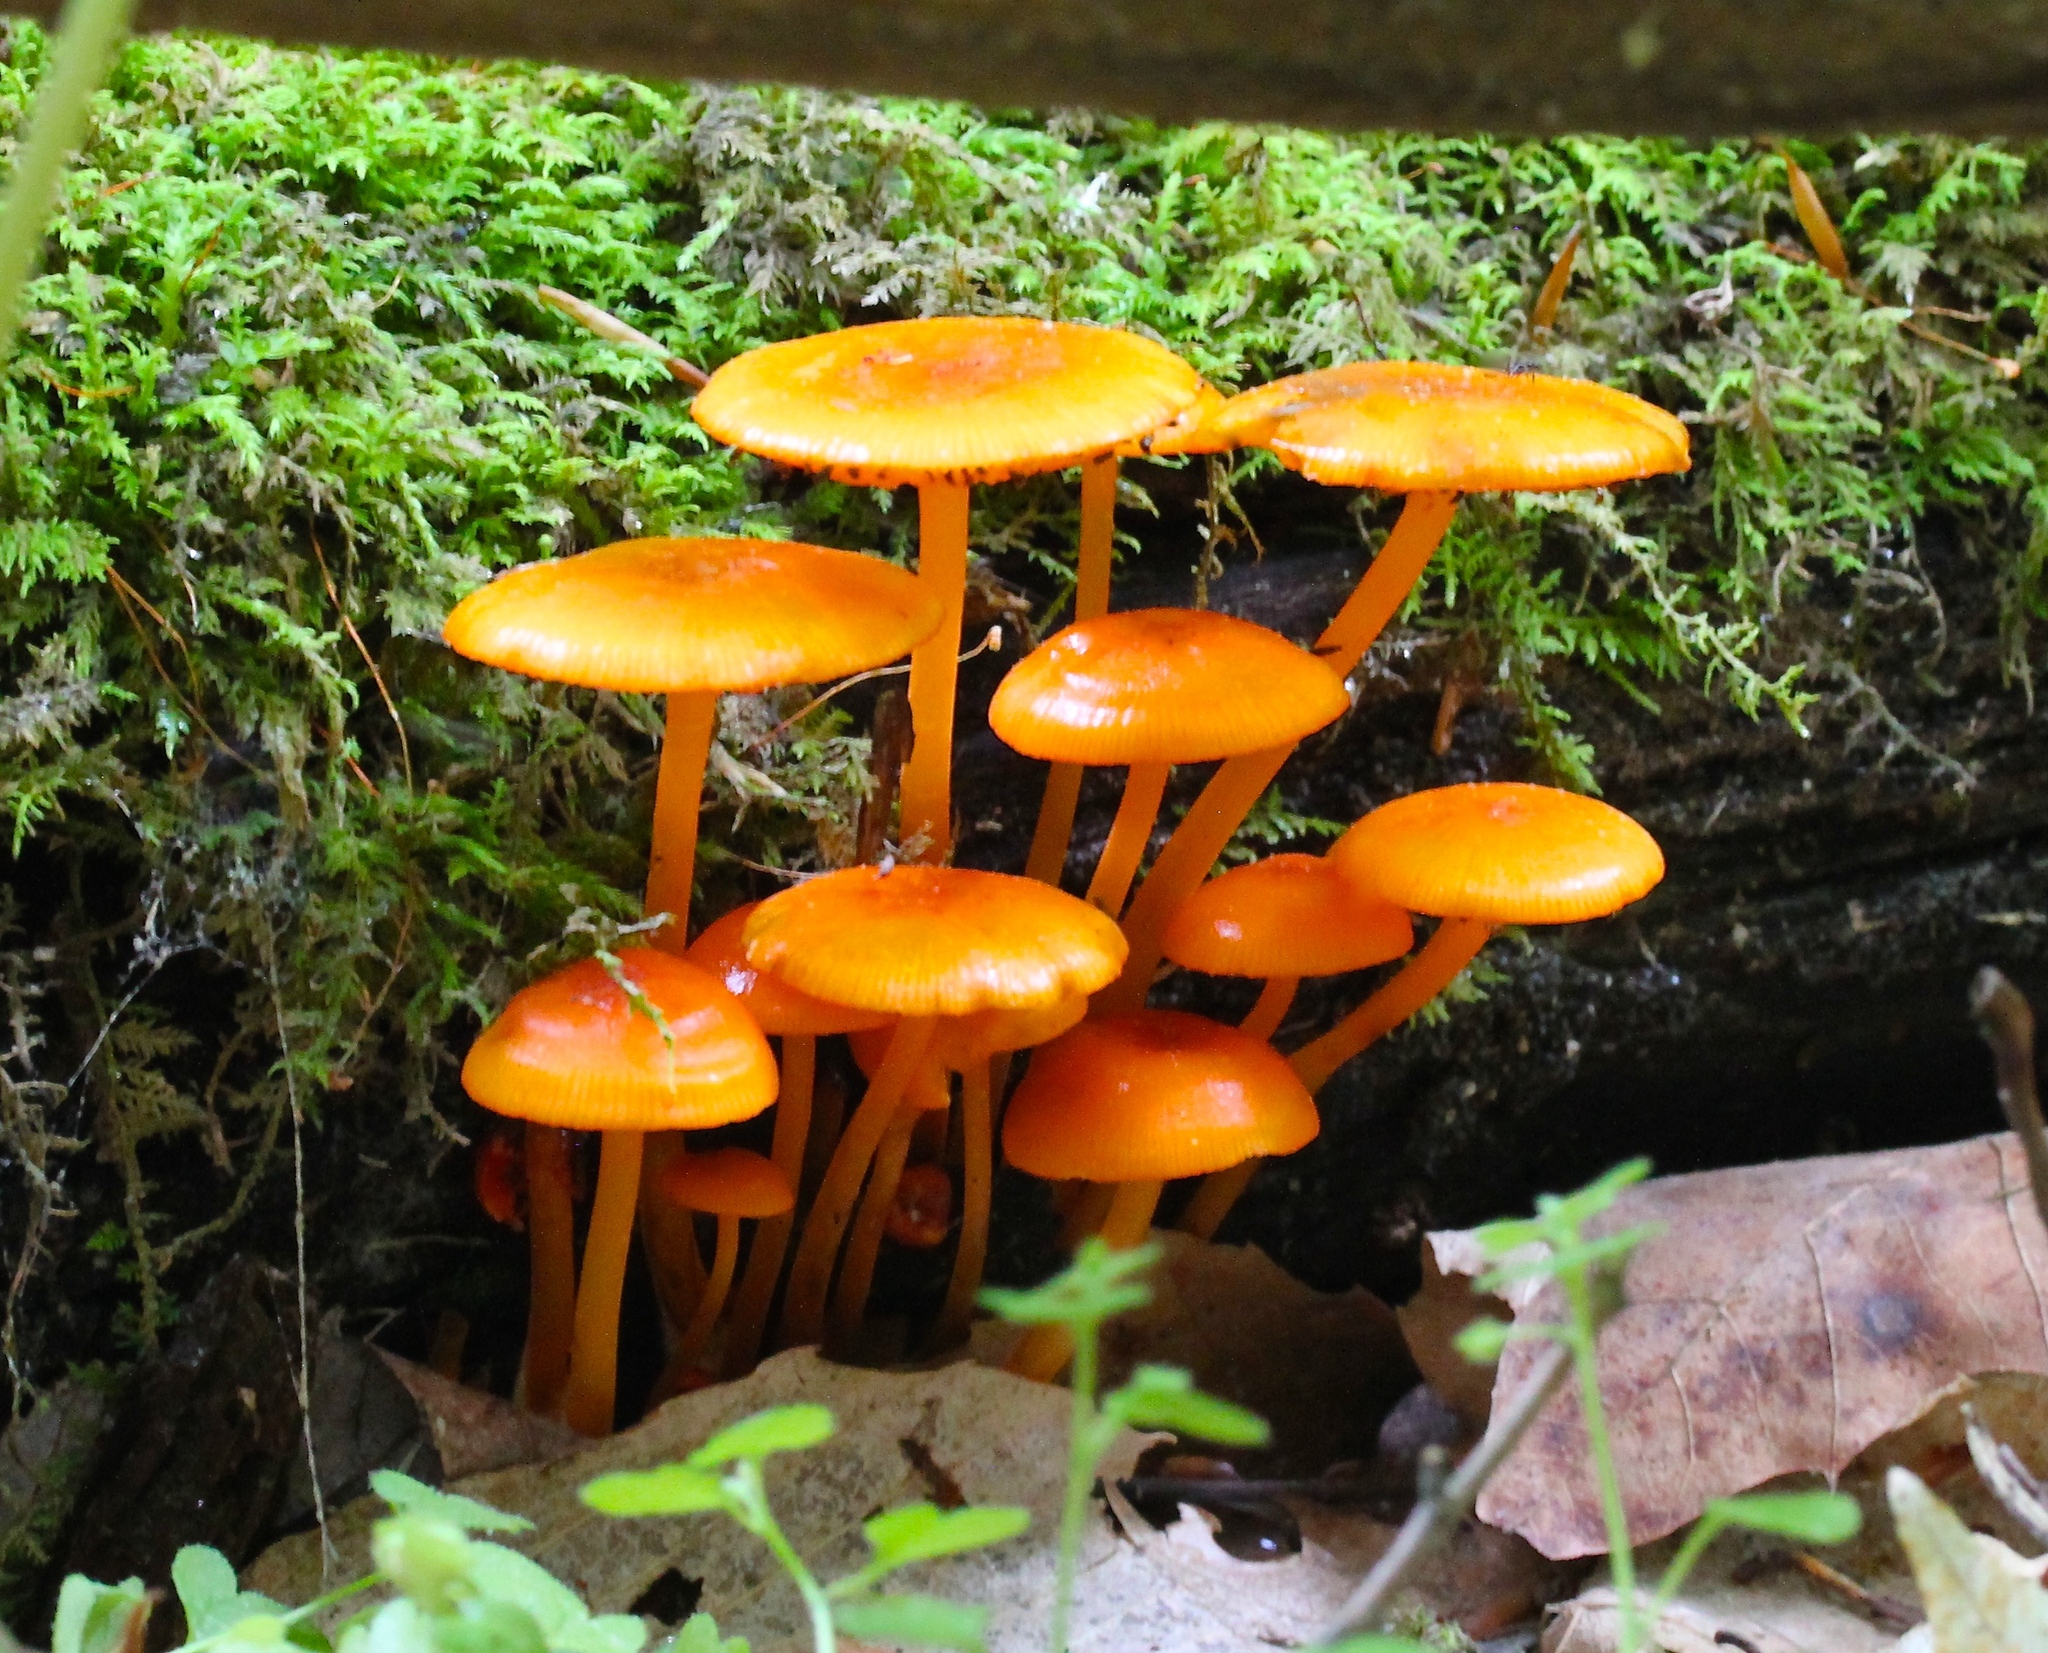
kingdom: Fungi
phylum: Basidiomycota
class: Agaricomycetes
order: Agaricales
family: Mycenaceae
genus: Mycena
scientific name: Mycena leaiana
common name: Orange mycena
